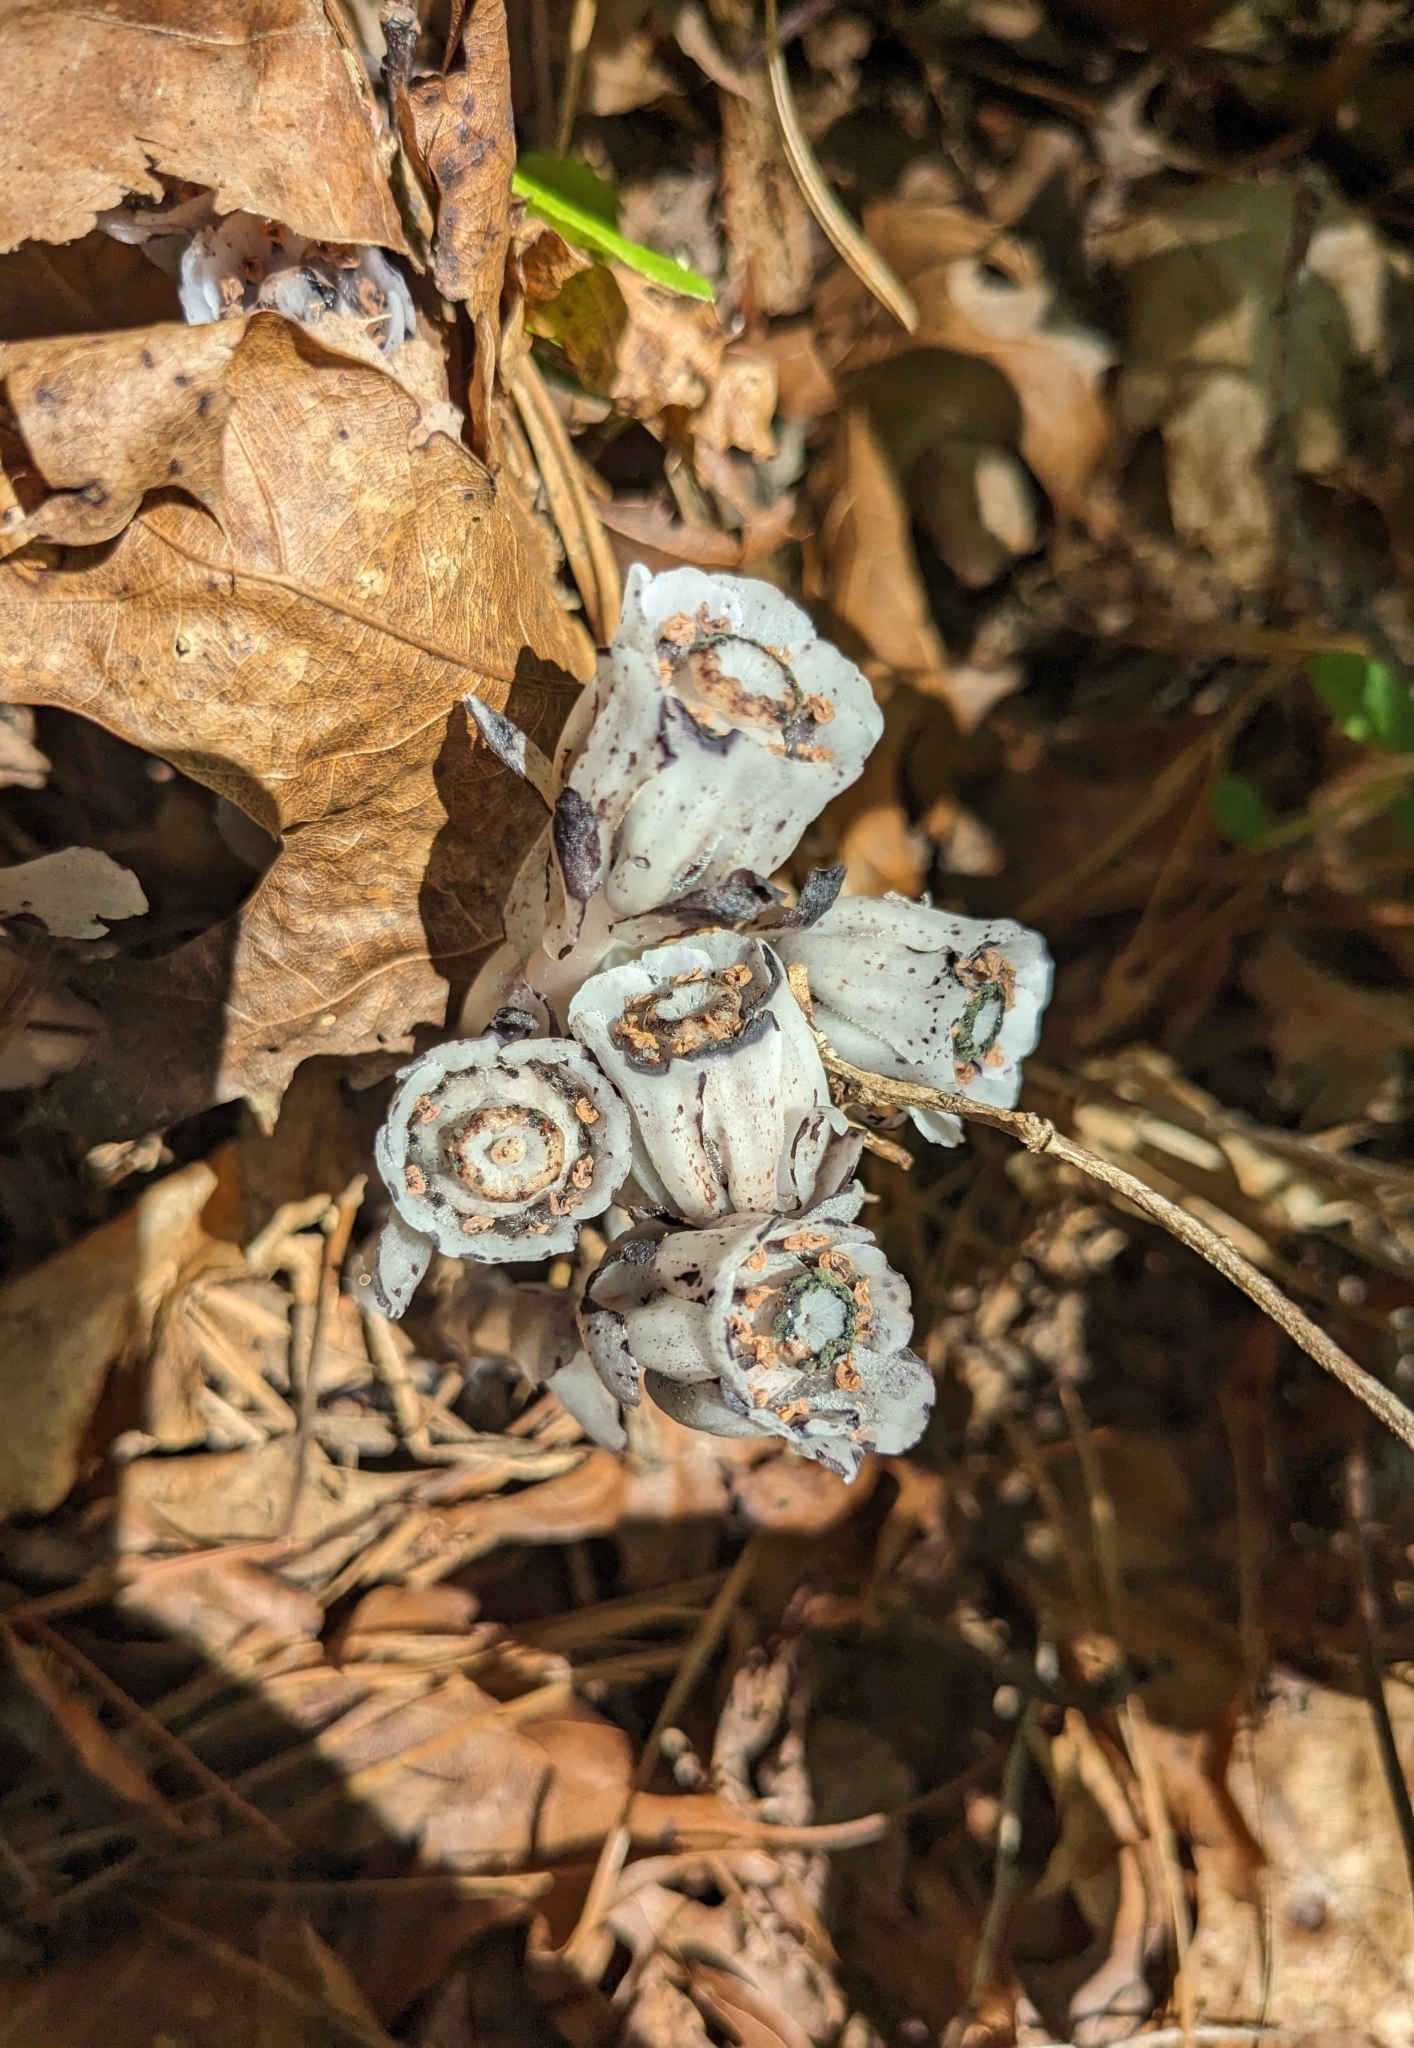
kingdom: Plantae
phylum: Tracheophyta
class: Magnoliopsida
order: Ericales
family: Ericaceae
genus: Monotropa
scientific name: Monotropa uniflora
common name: Convulsion root
